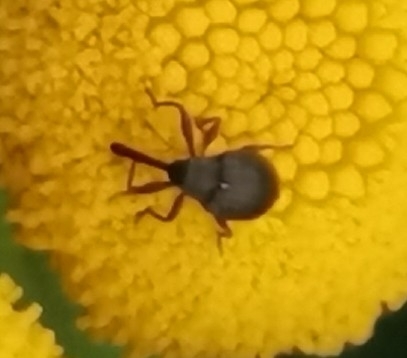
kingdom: Animalia
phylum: Arthropoda
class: Insecta
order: Coleoptera
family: Curculionidae
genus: Anthonomus
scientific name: Anthonomus rubi
